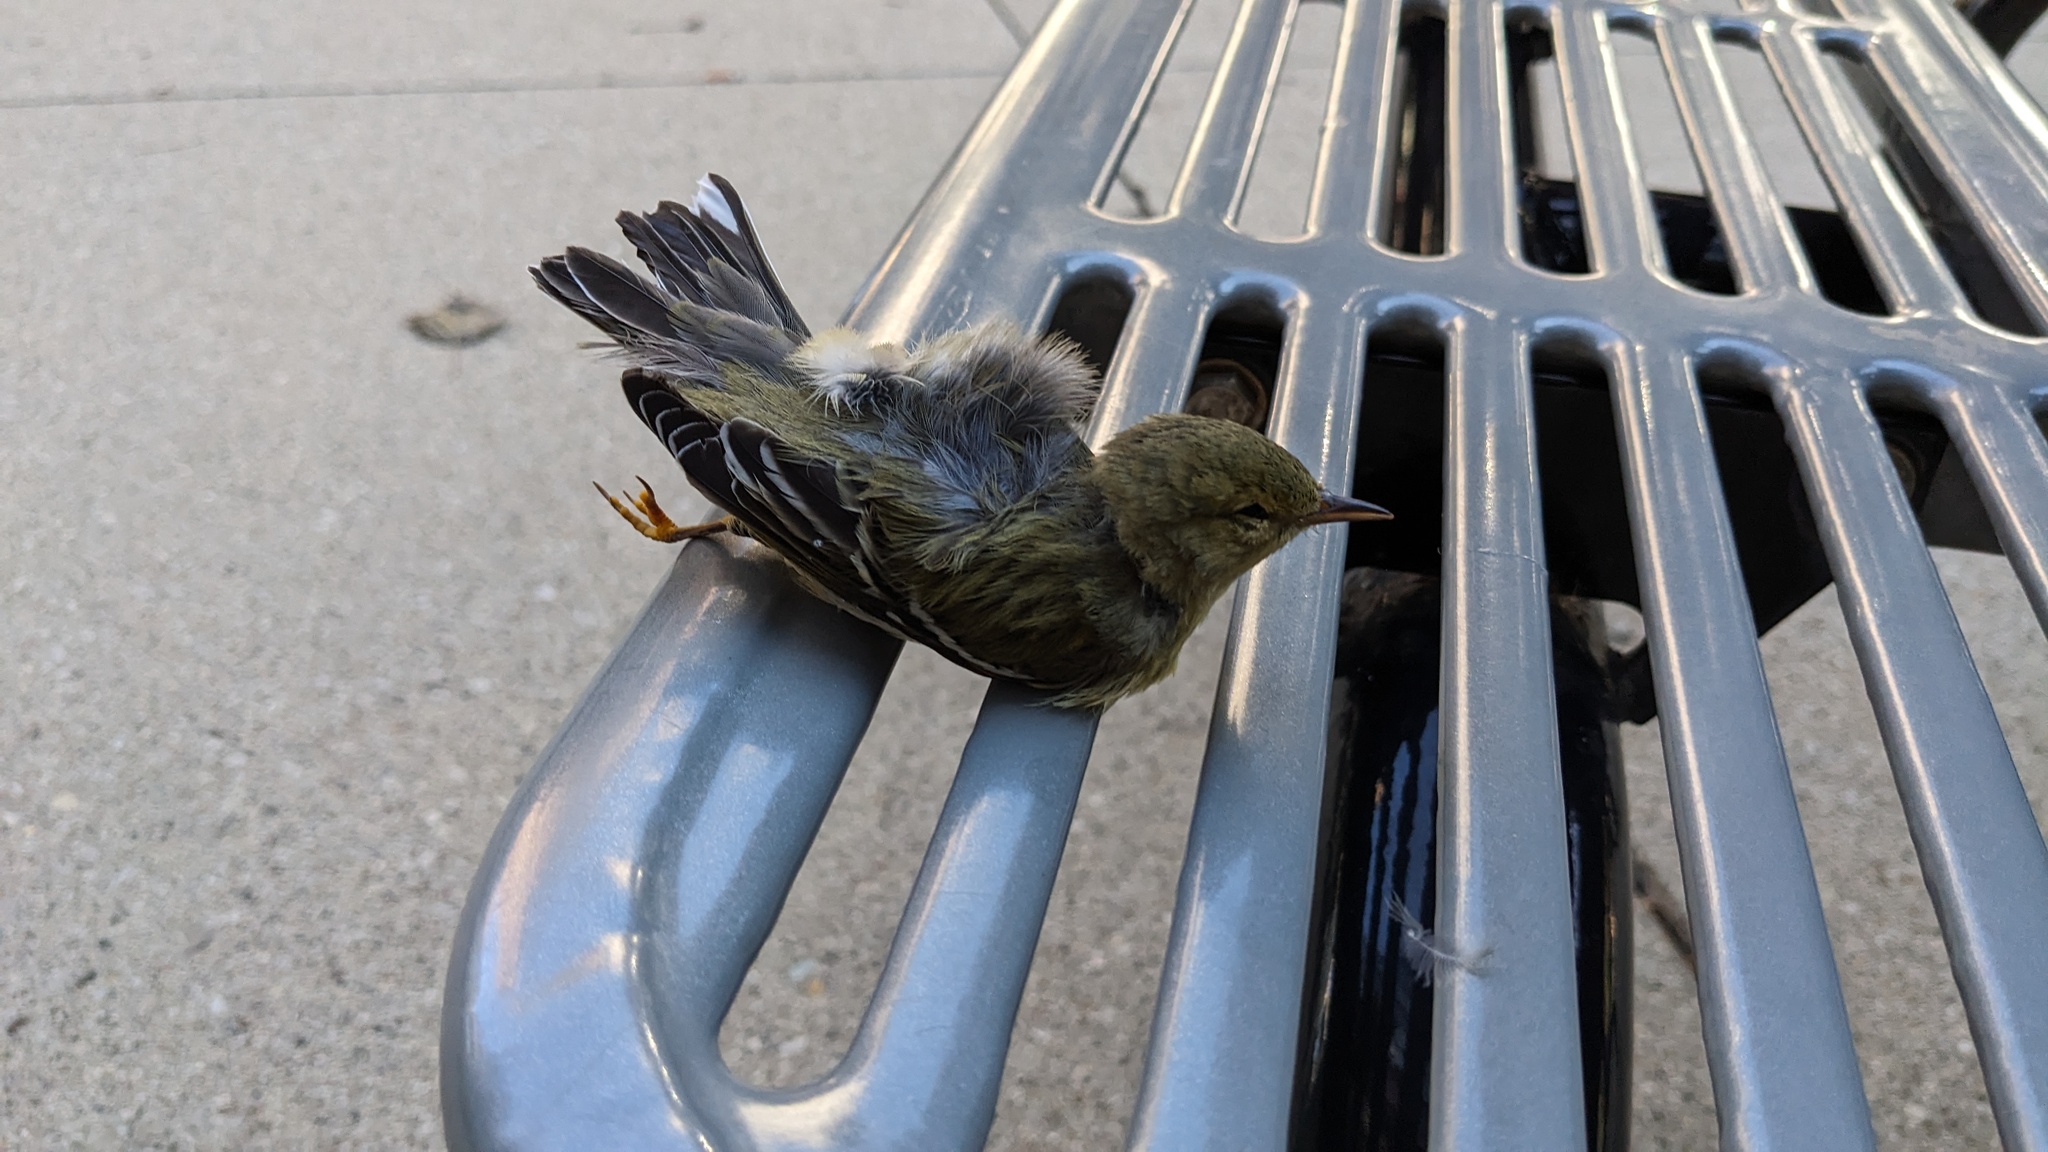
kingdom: Animalia
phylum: Chordata
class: Aves
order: Passeriformes
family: Parulidae
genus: Setophaga
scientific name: Setophaga striata
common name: Blackpoll warbler
